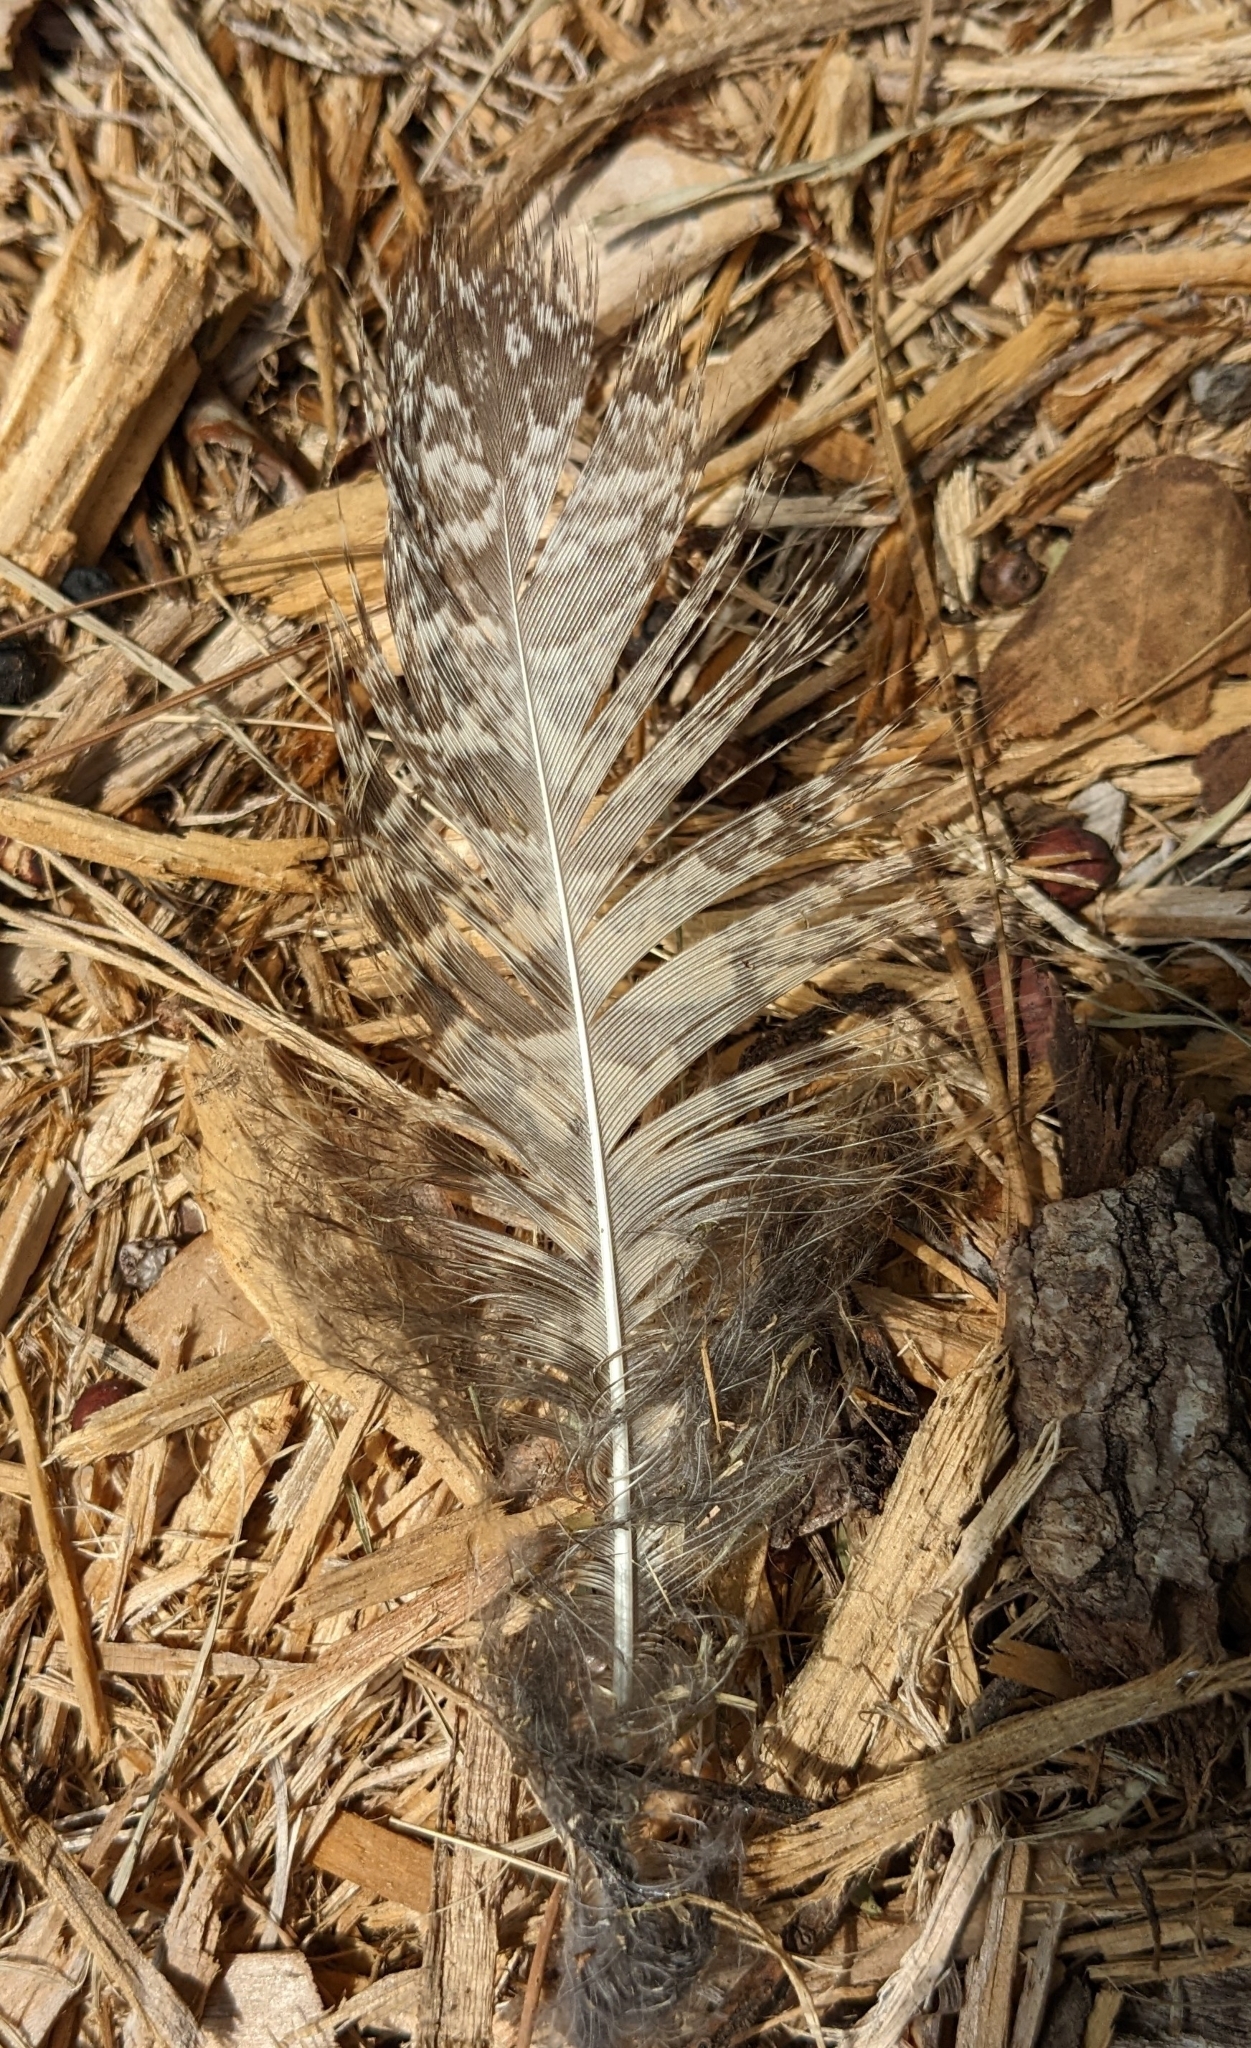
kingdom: Animalia
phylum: Chordata
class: Aves
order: Strigiformes
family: Strigidae
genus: Bubo
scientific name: Bubo virginianus
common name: Great horned owl
